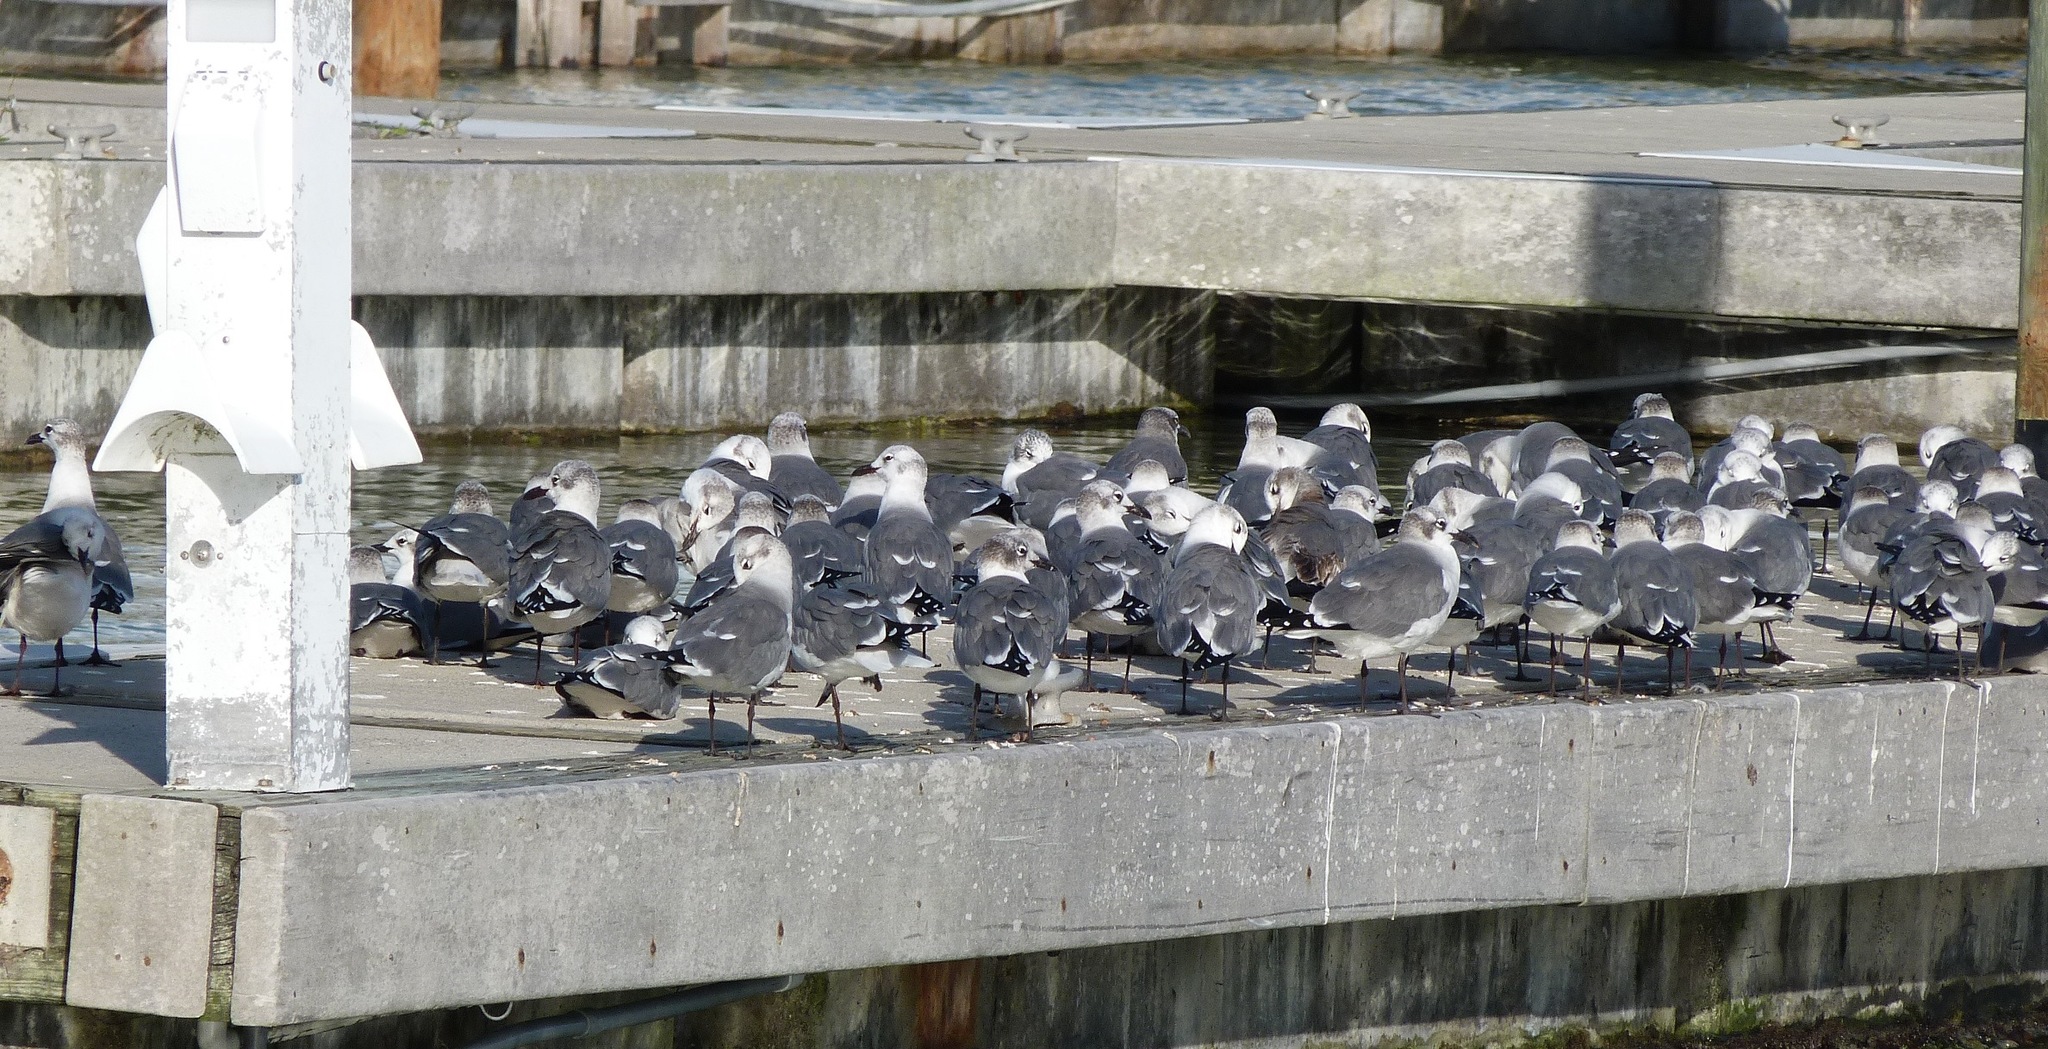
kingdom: Animalia
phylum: Chordata
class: Aves
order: Charadriiformes
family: Laridae
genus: Leucophaeus
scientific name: Leucophaeus atricilla
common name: Laughing gull
